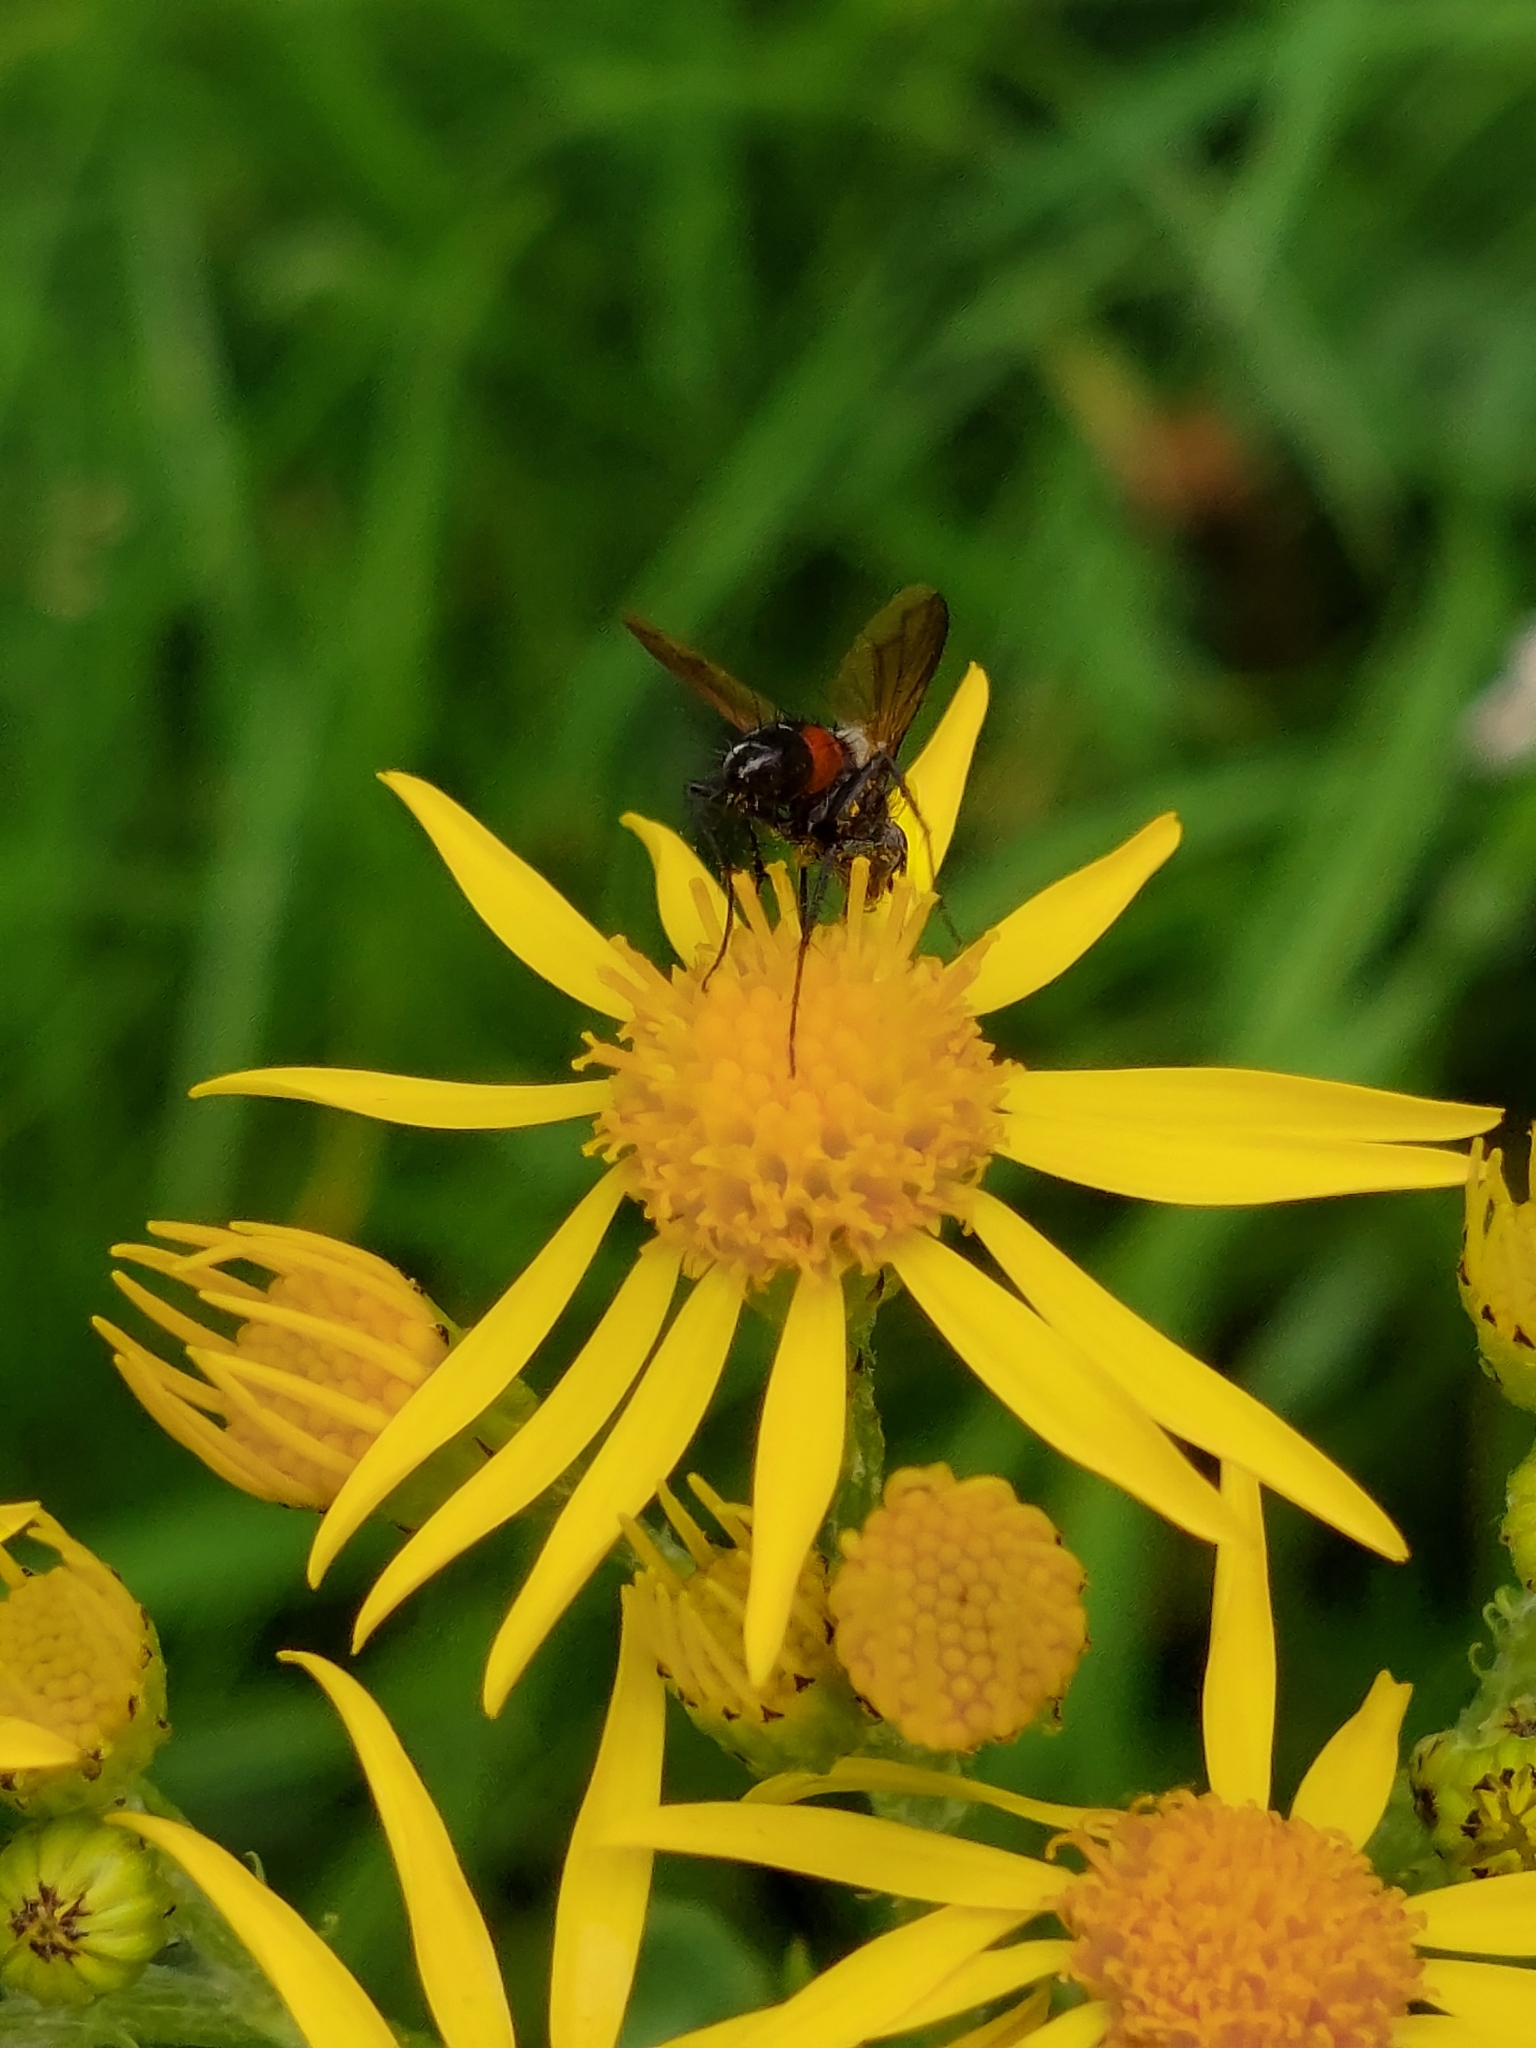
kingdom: Animalia
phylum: Arthropoda
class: Insecta
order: Diptera
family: Tachinidae
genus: Eriothrix
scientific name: Eriothrix rufomaculatus
